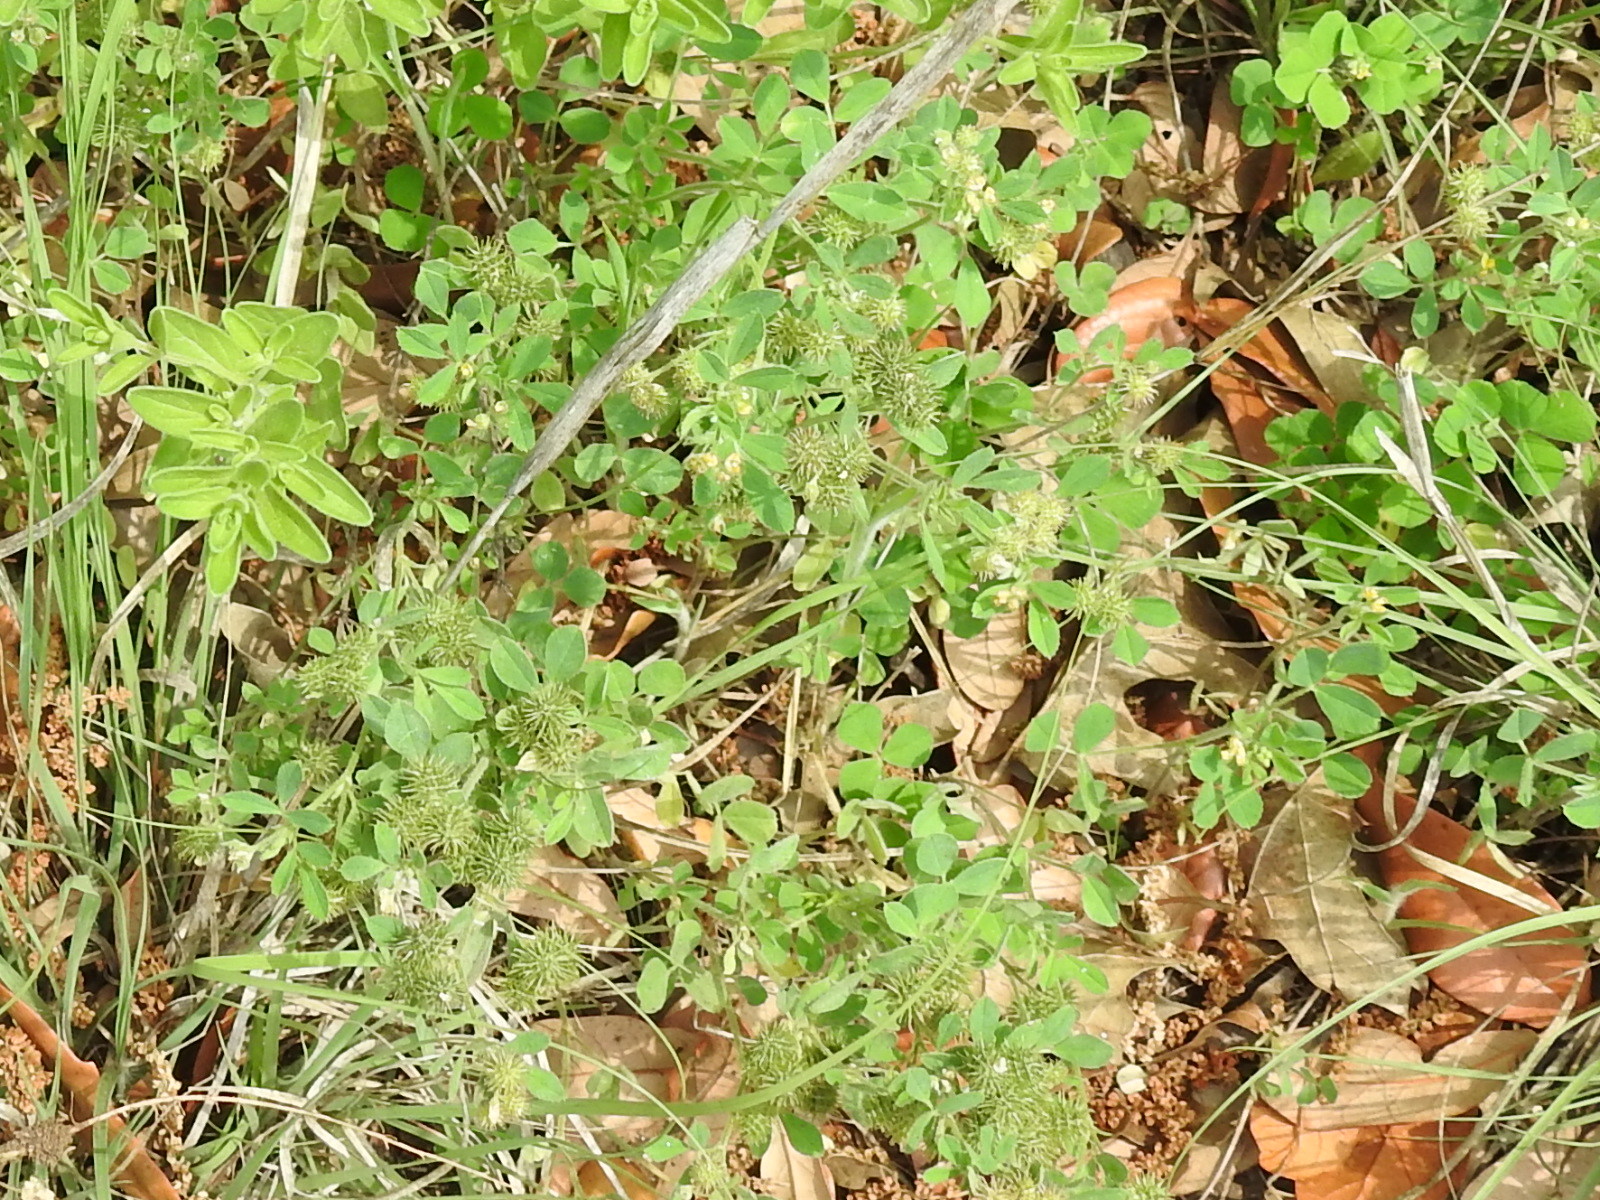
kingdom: Plantae
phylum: Tracheophyta
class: Magnoliopsida
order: Fabales
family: Fabaceae
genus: Medicago
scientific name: Medicago minima
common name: Little bur-clover
